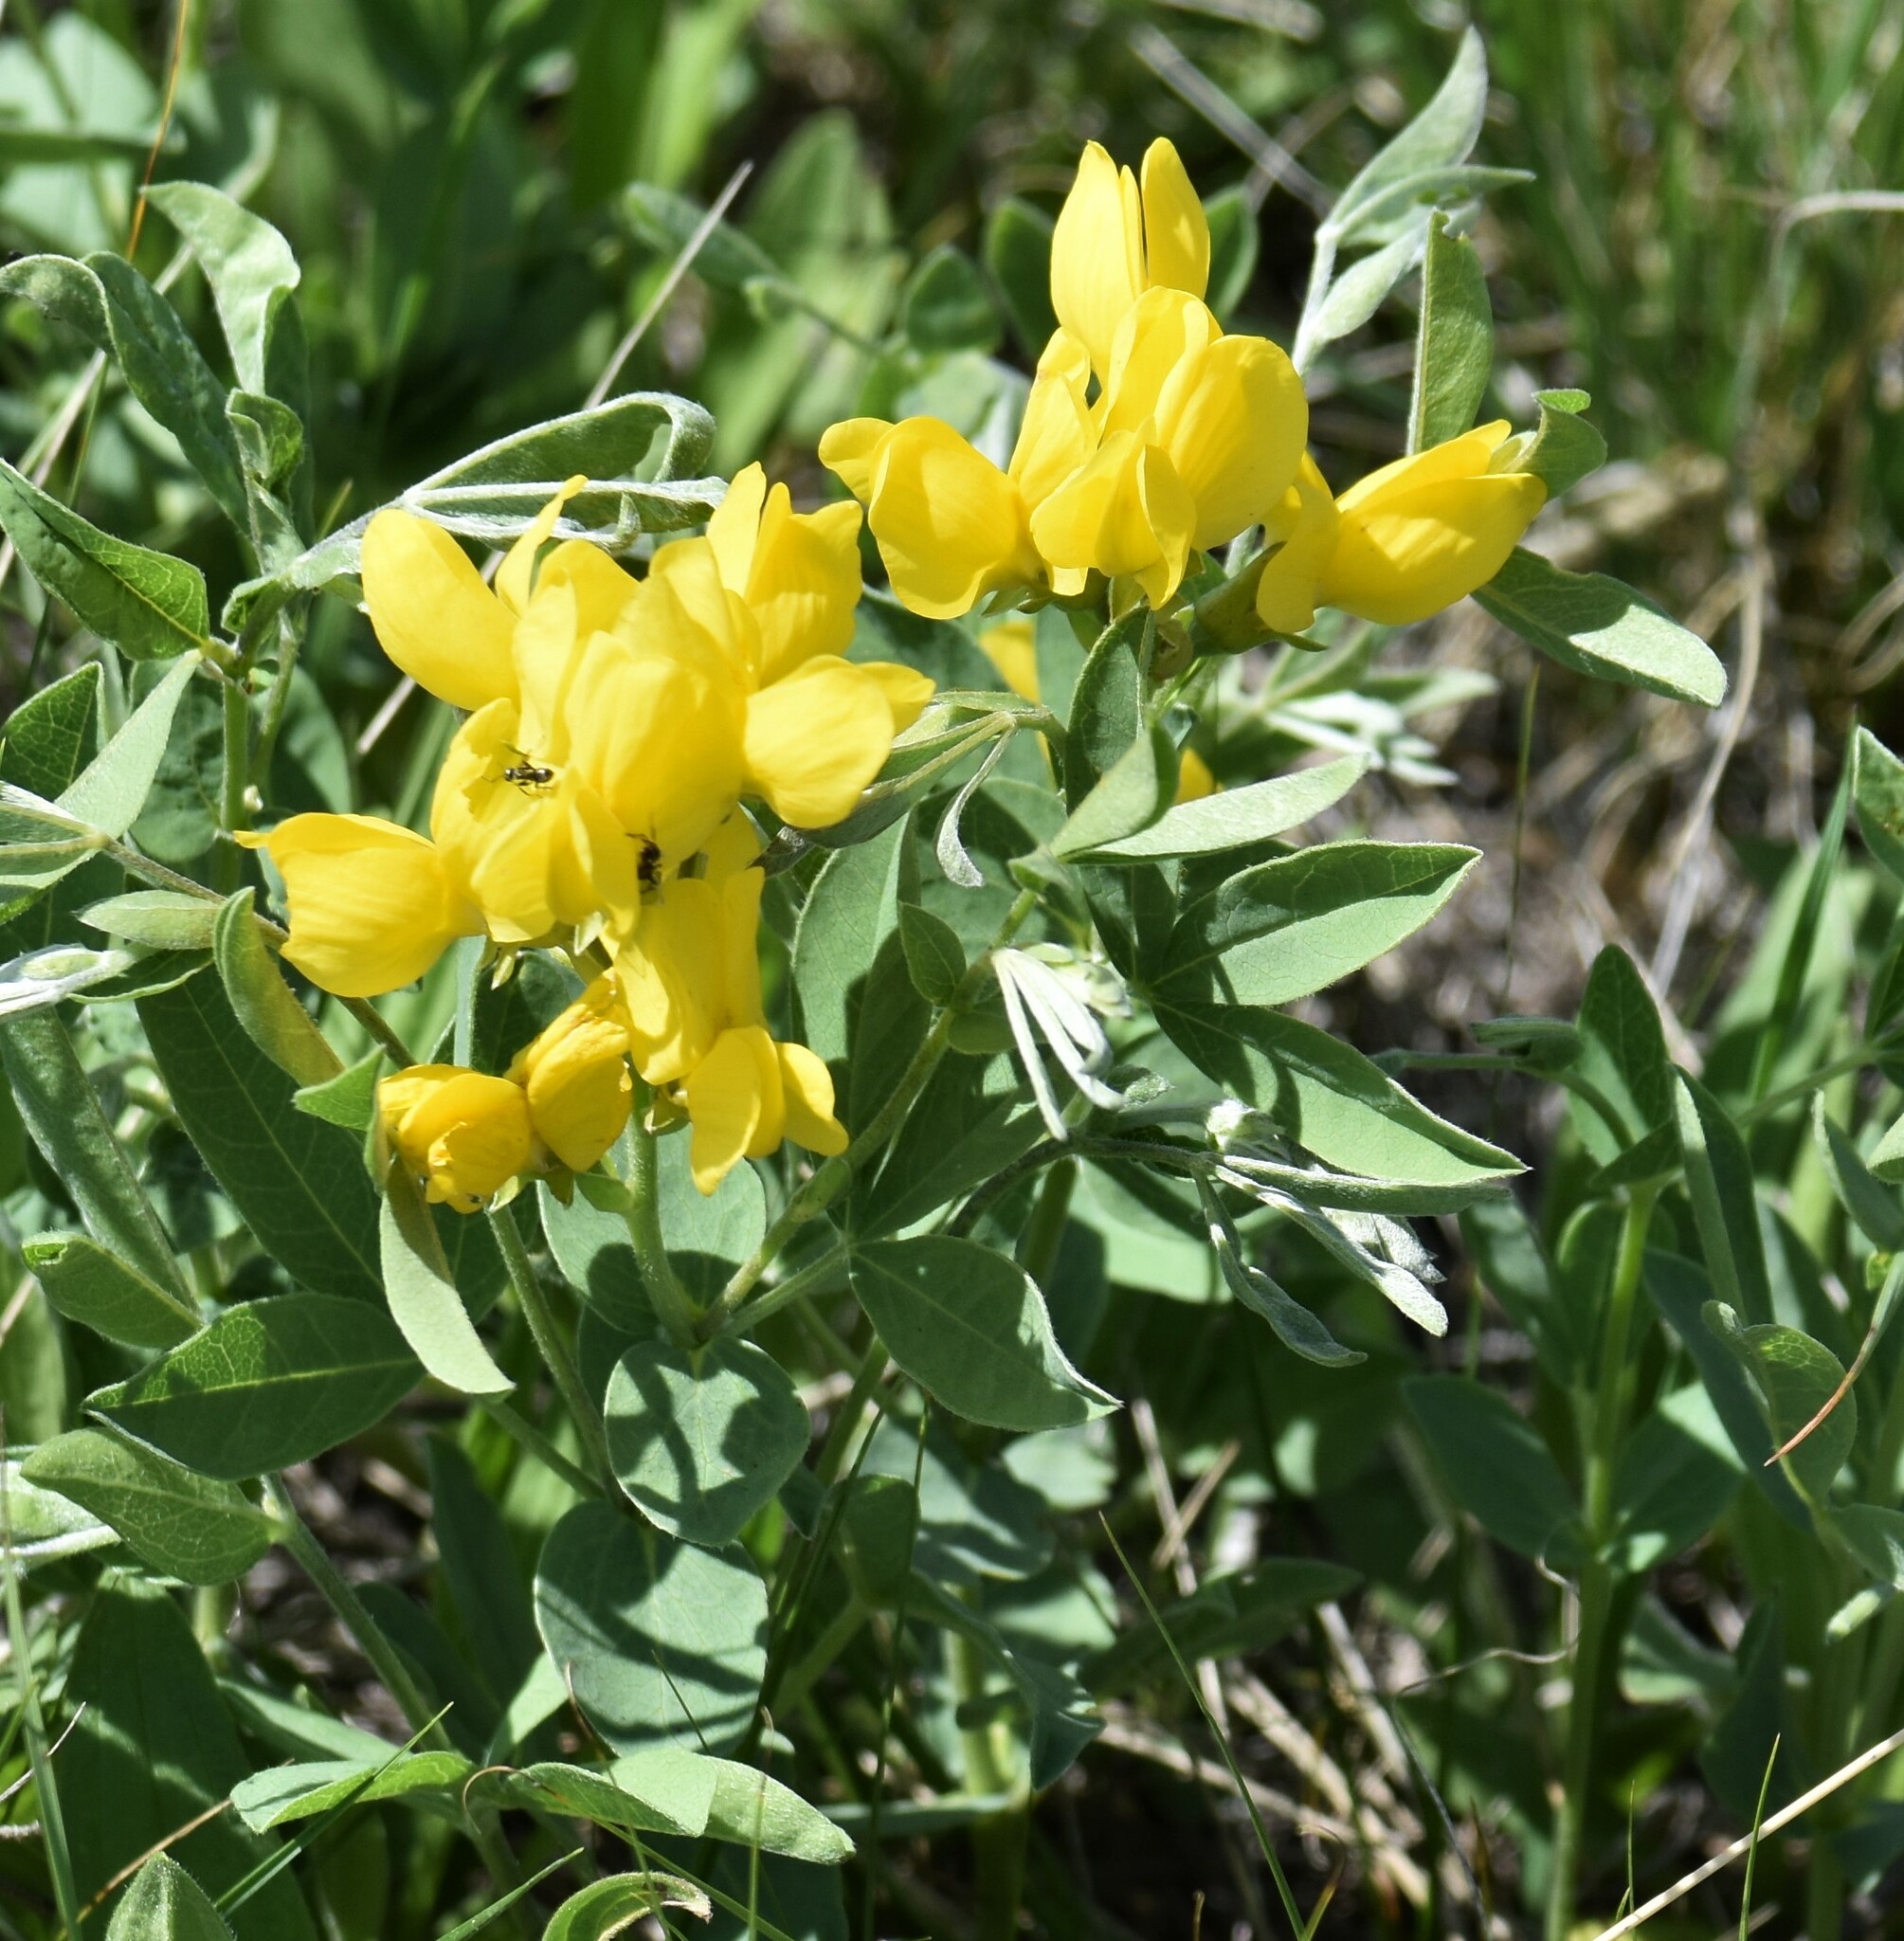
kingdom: Plantae
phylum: Tracheophyta
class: Magnoliopsida
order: Fabales
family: Fabaceae
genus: Thermopsis
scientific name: Thermopsis rhombifolia
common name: Circle-pod-pea
